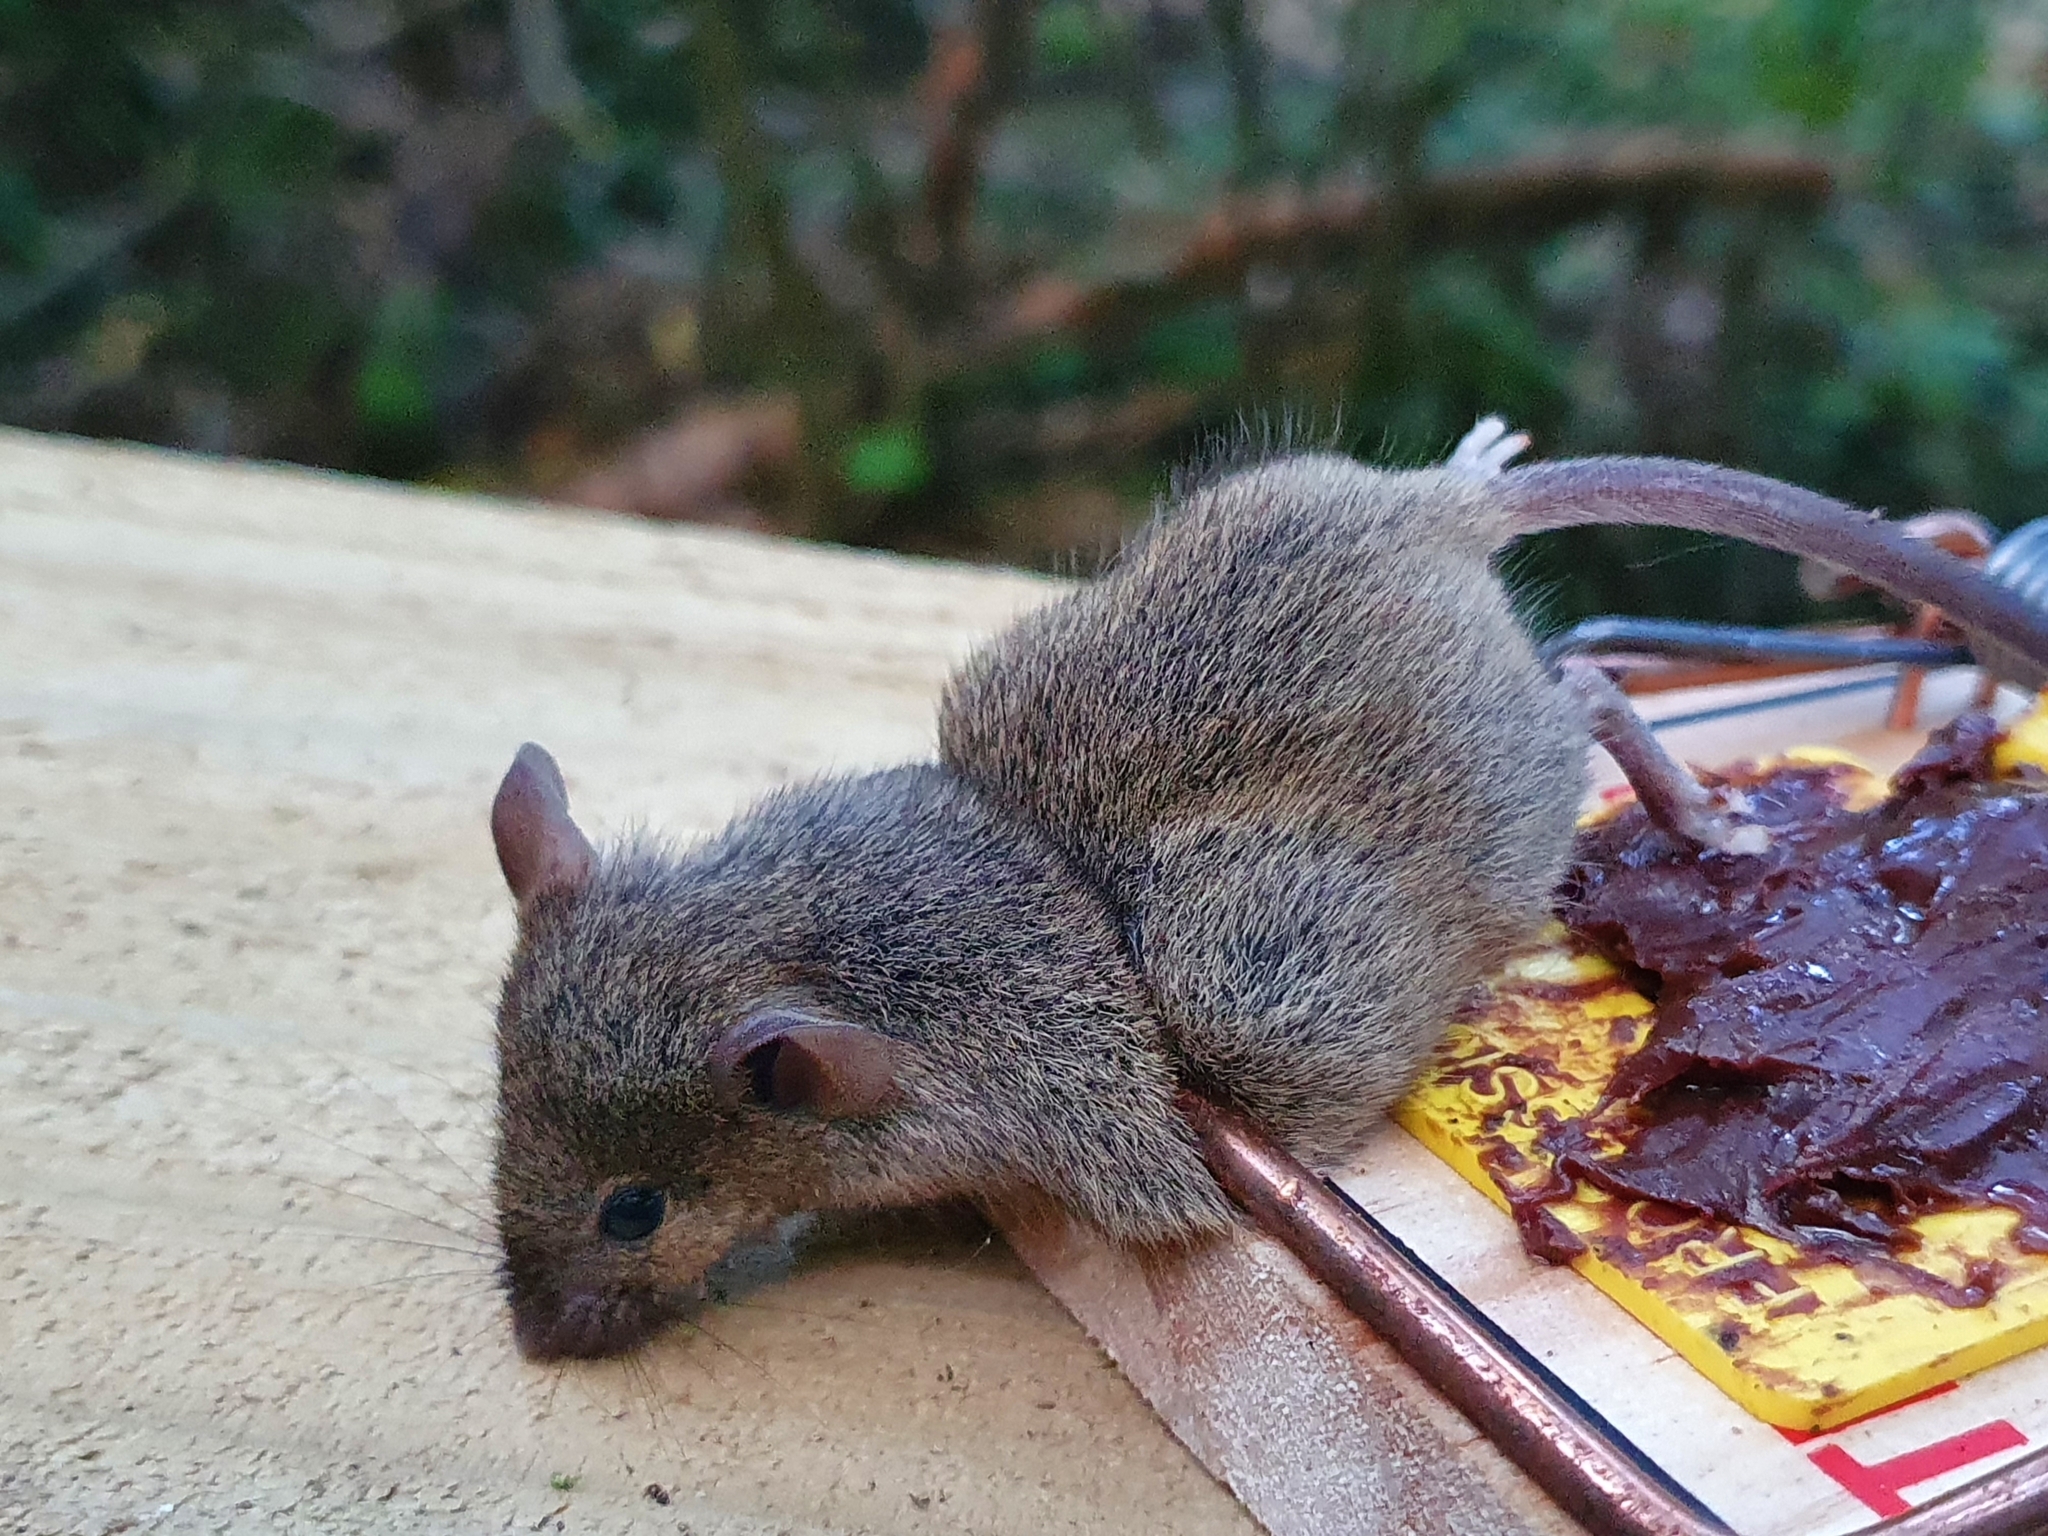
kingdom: Animalia
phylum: Chordata
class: Mammalia
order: Rodentia
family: Muridae
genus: Mus
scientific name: Mus musculus
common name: House mouse
